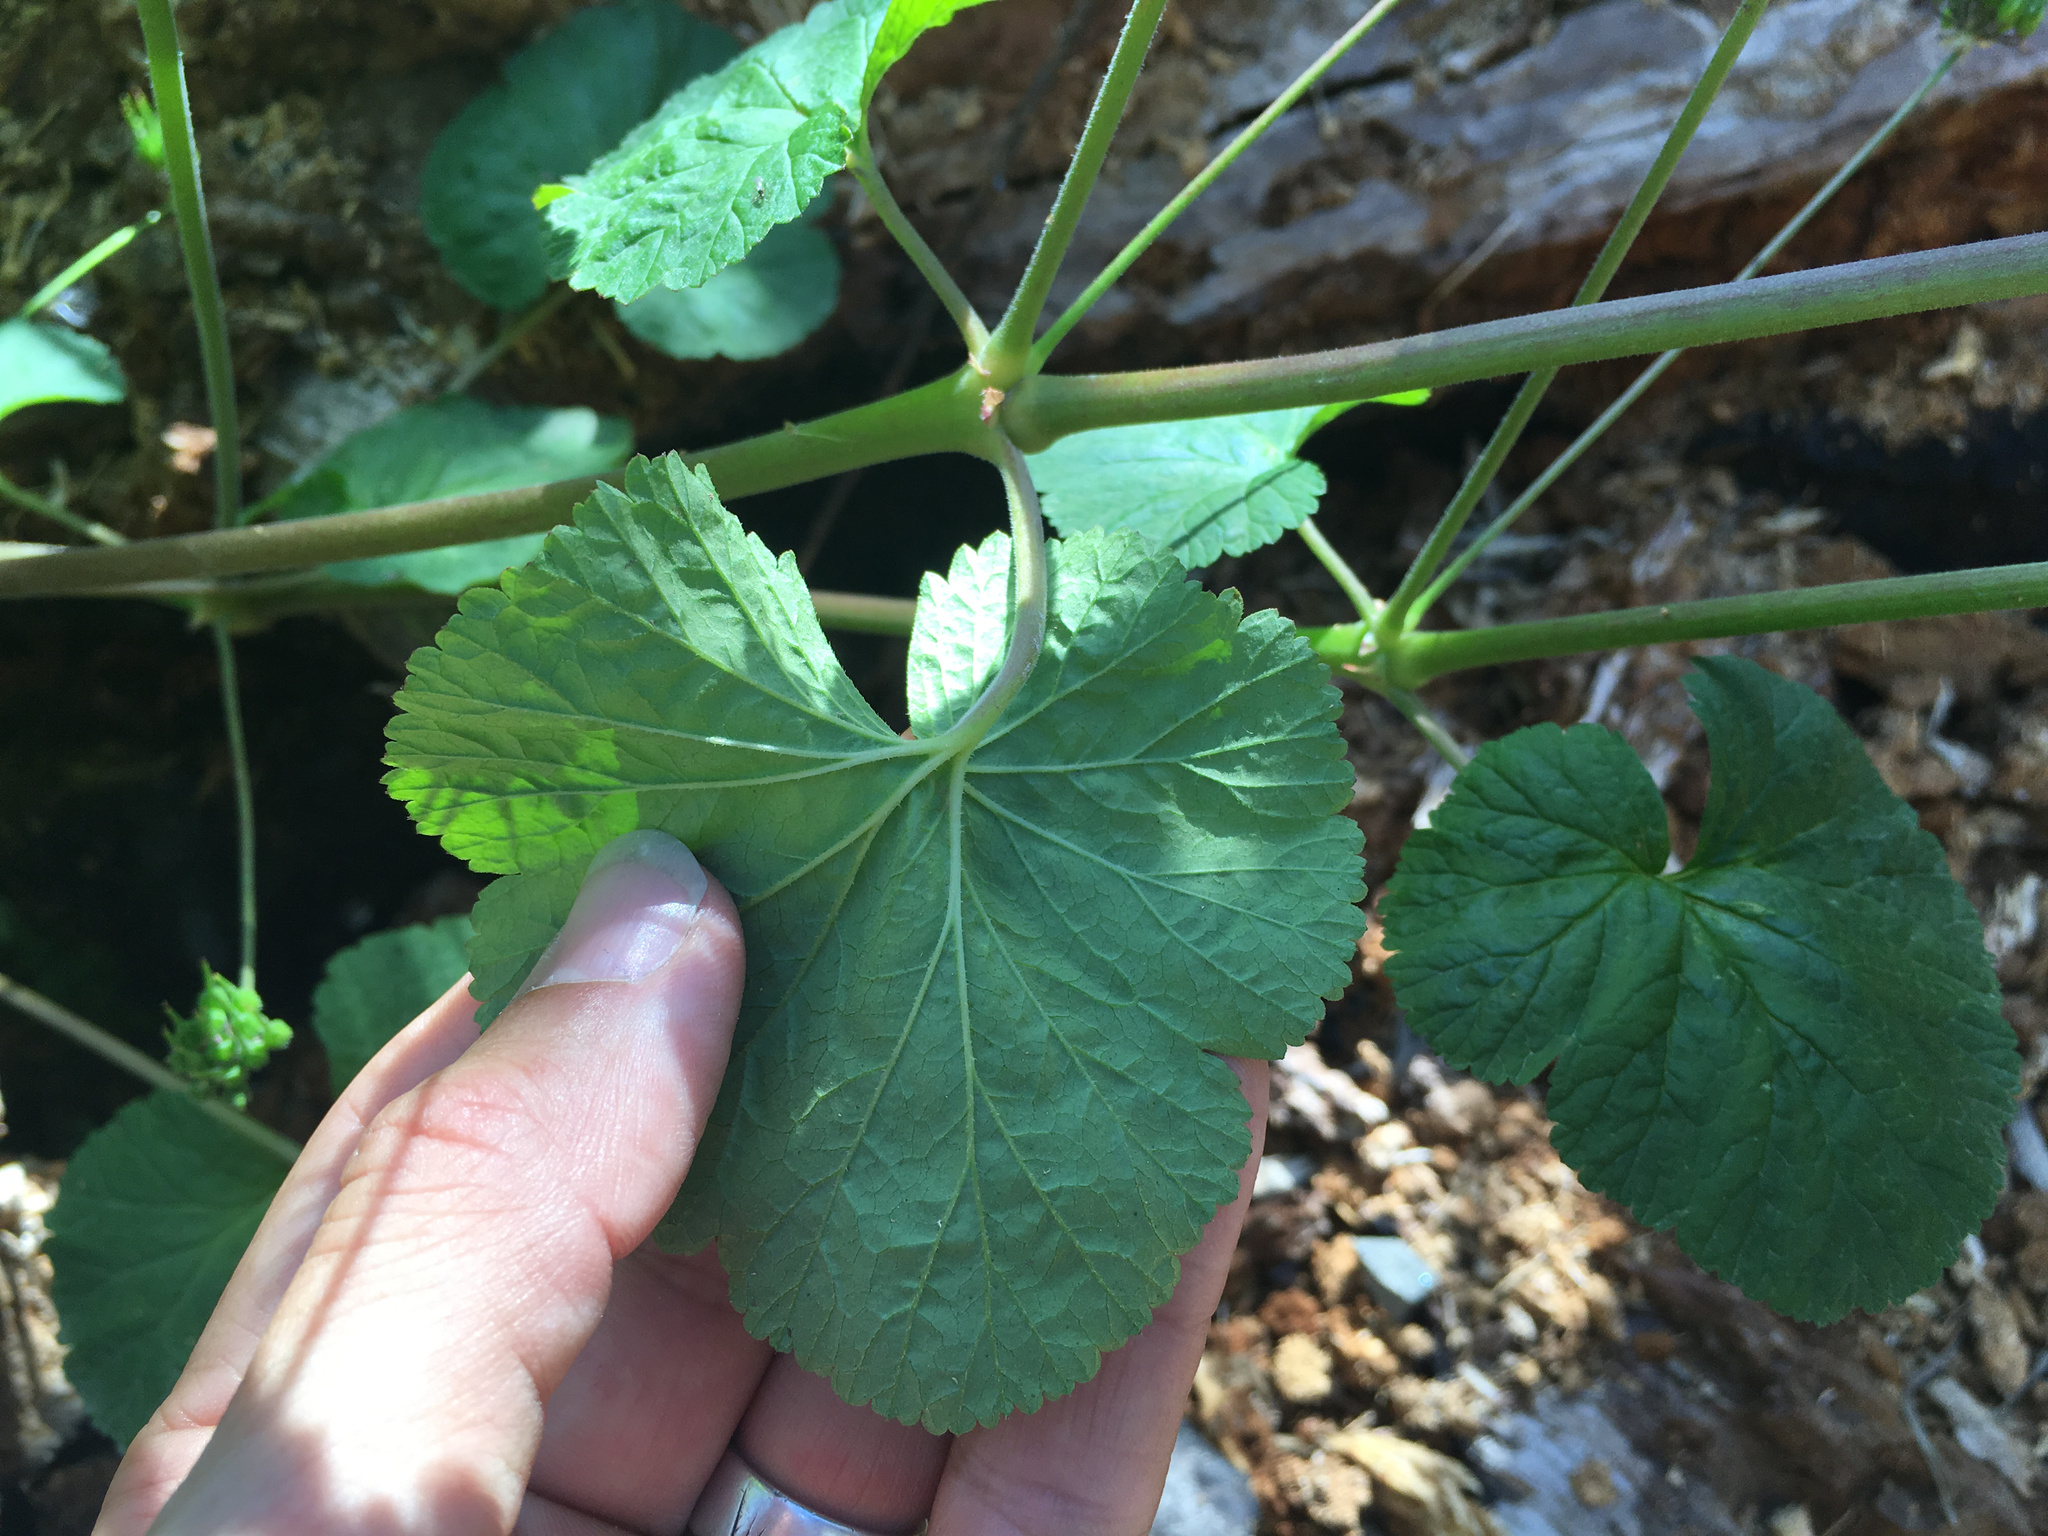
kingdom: Plantae
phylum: Tracheophyta
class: Magnoliopsida
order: Geraniales
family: Geraniaceae
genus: Pelargonium
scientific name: Pelargonium inodorum
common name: Kopata geranium
